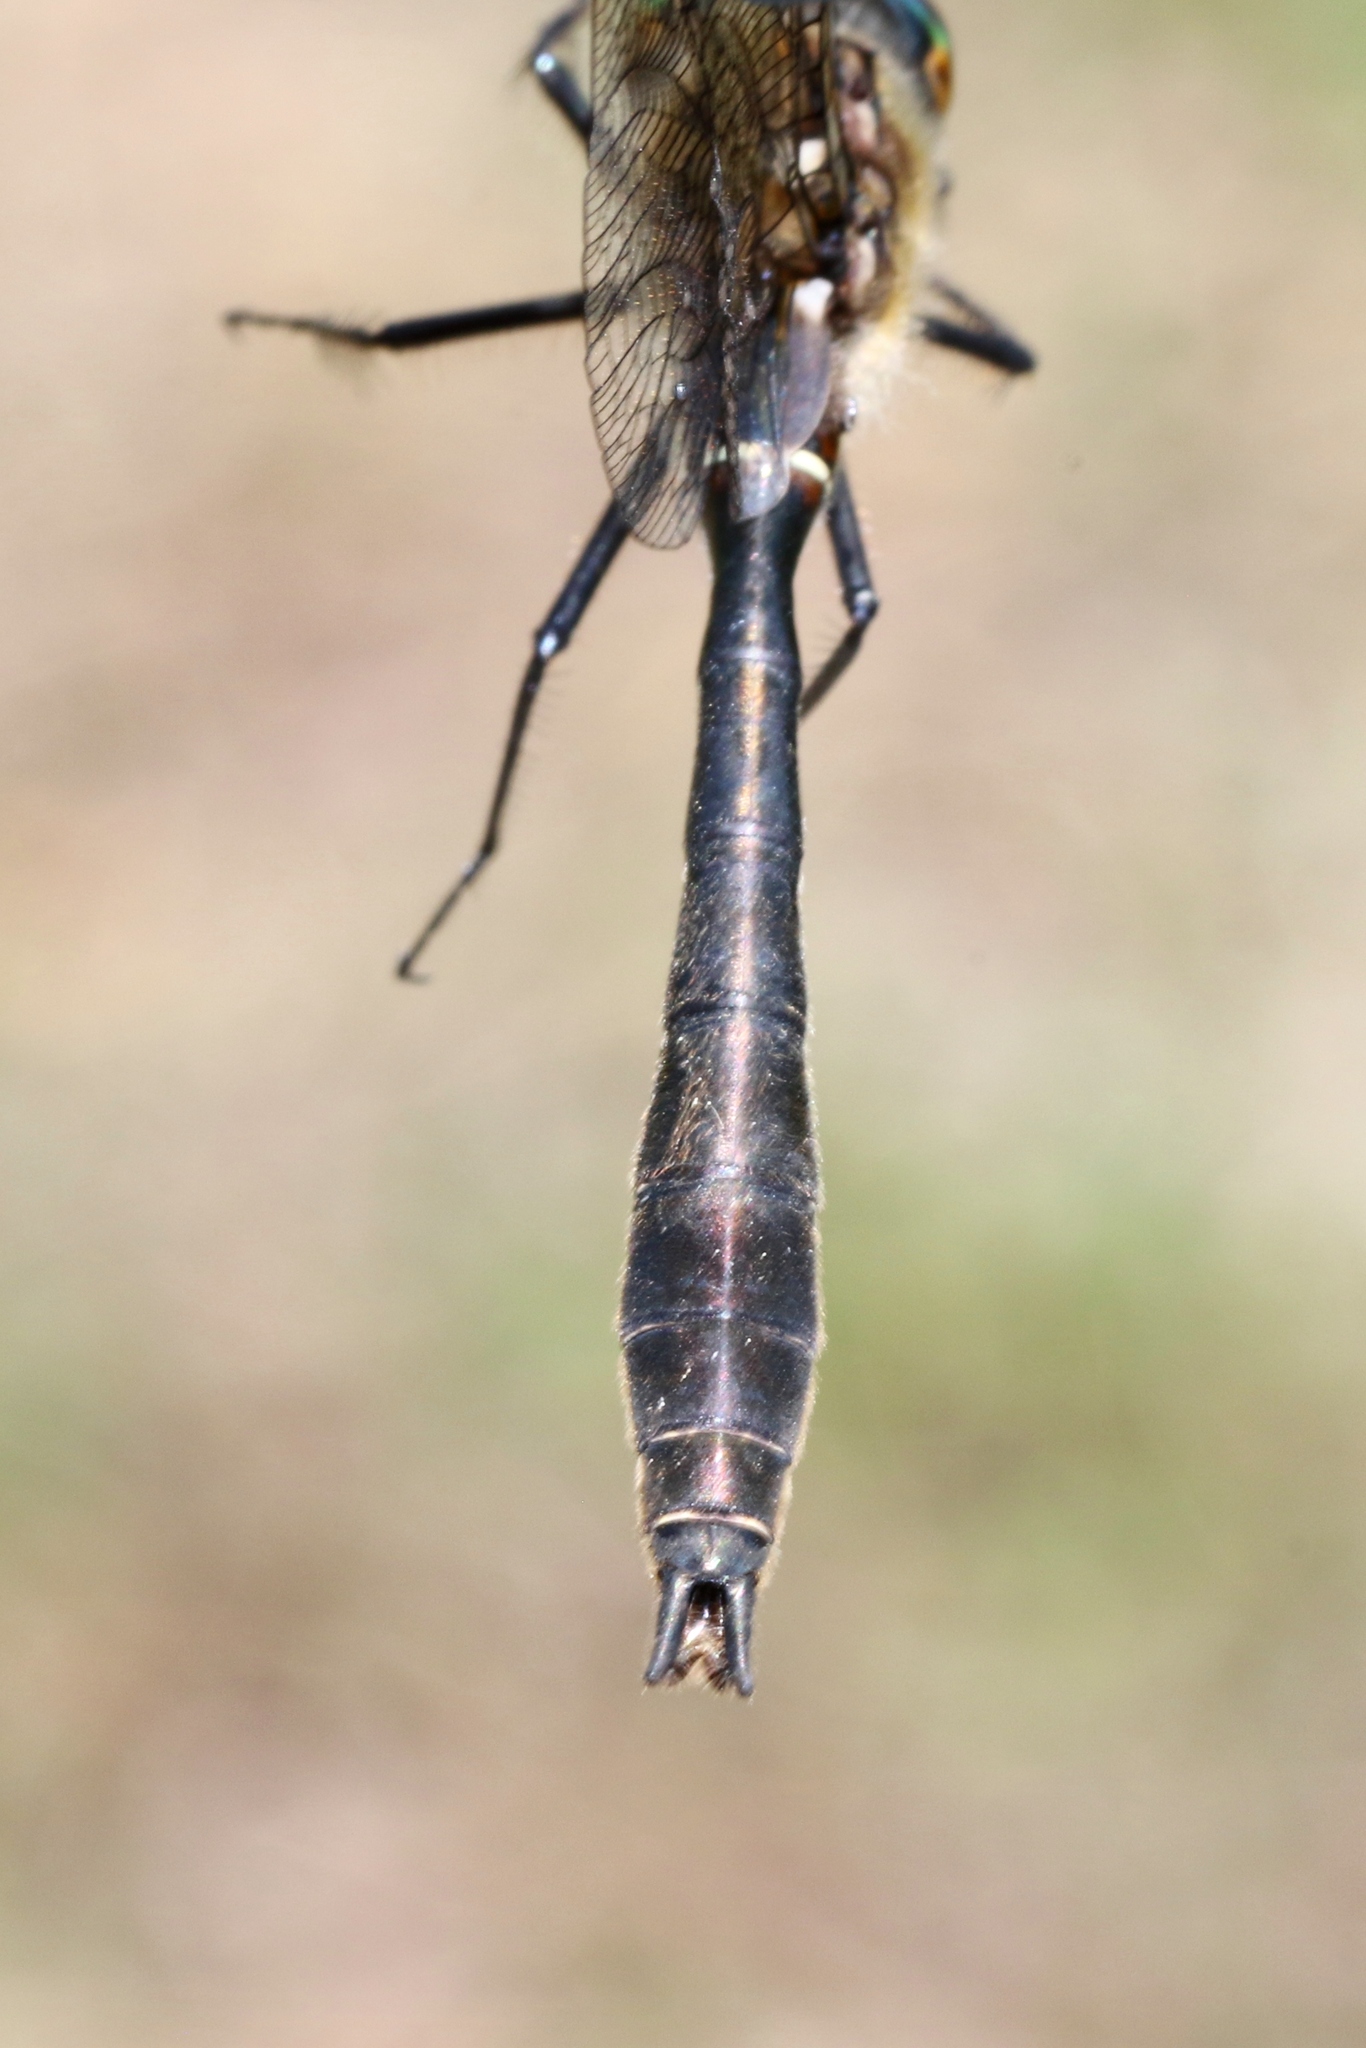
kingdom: Animalia
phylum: Arthropoda
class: Insecta
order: Odonata
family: Corduliidae
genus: Cordulia
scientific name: Cordulia shurtleffii
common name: American emerald
